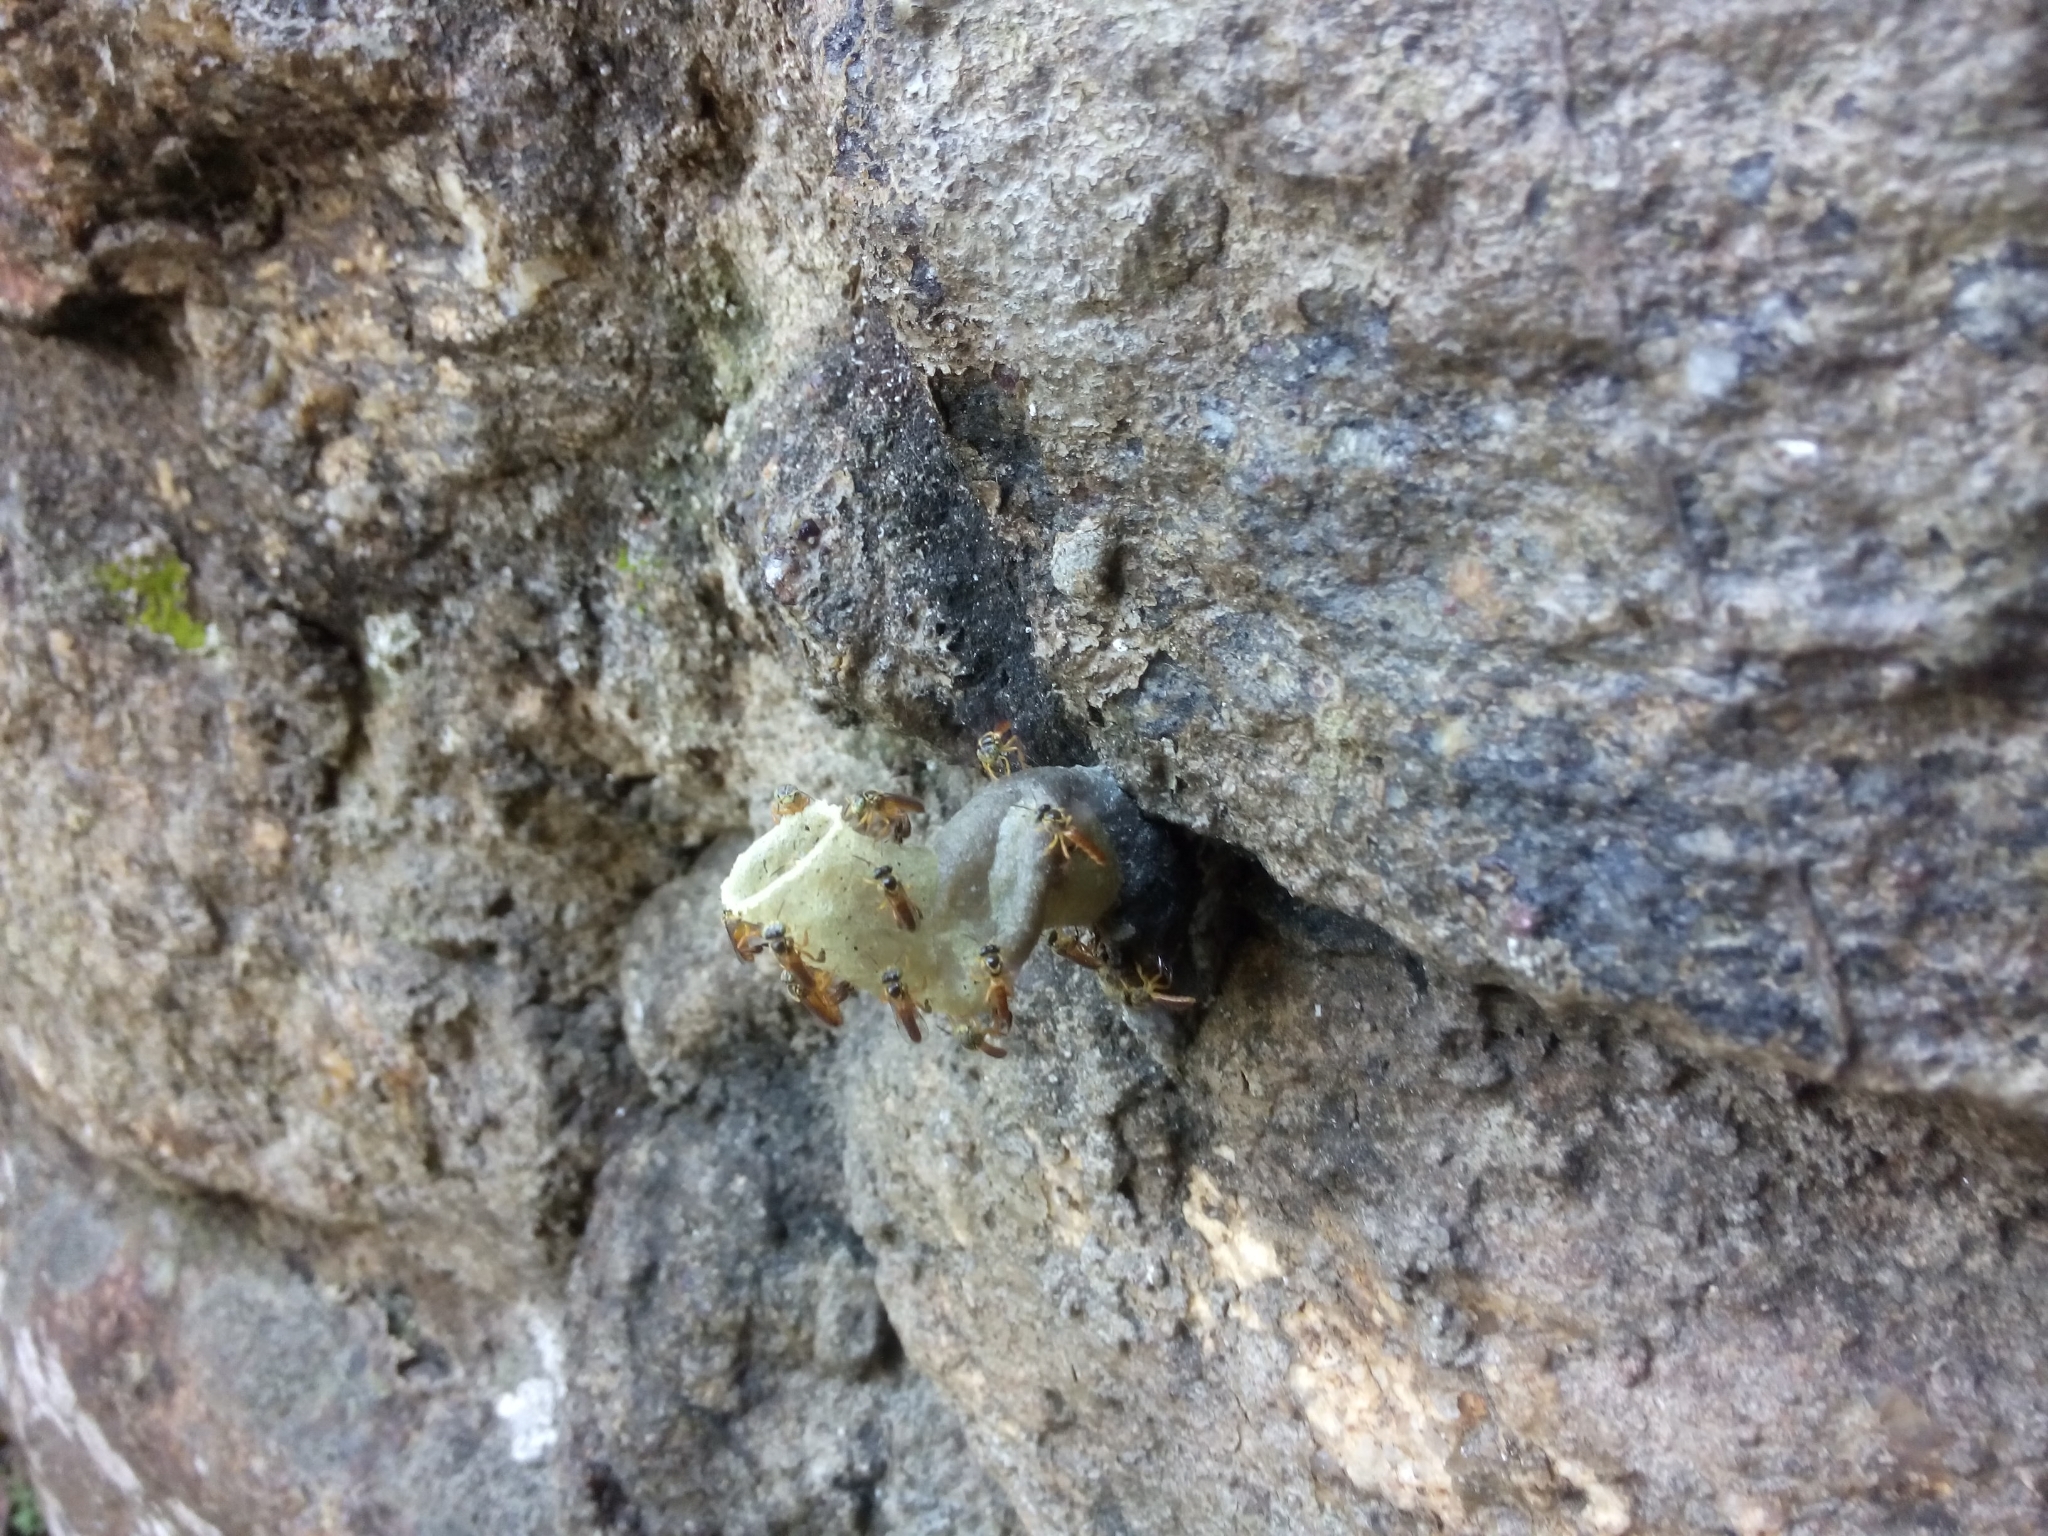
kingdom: Animalia
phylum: Arthropoda
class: Insecta
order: Hymenoptera
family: Apidae
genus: Tetragonisca
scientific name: Tetragonisca angustula
